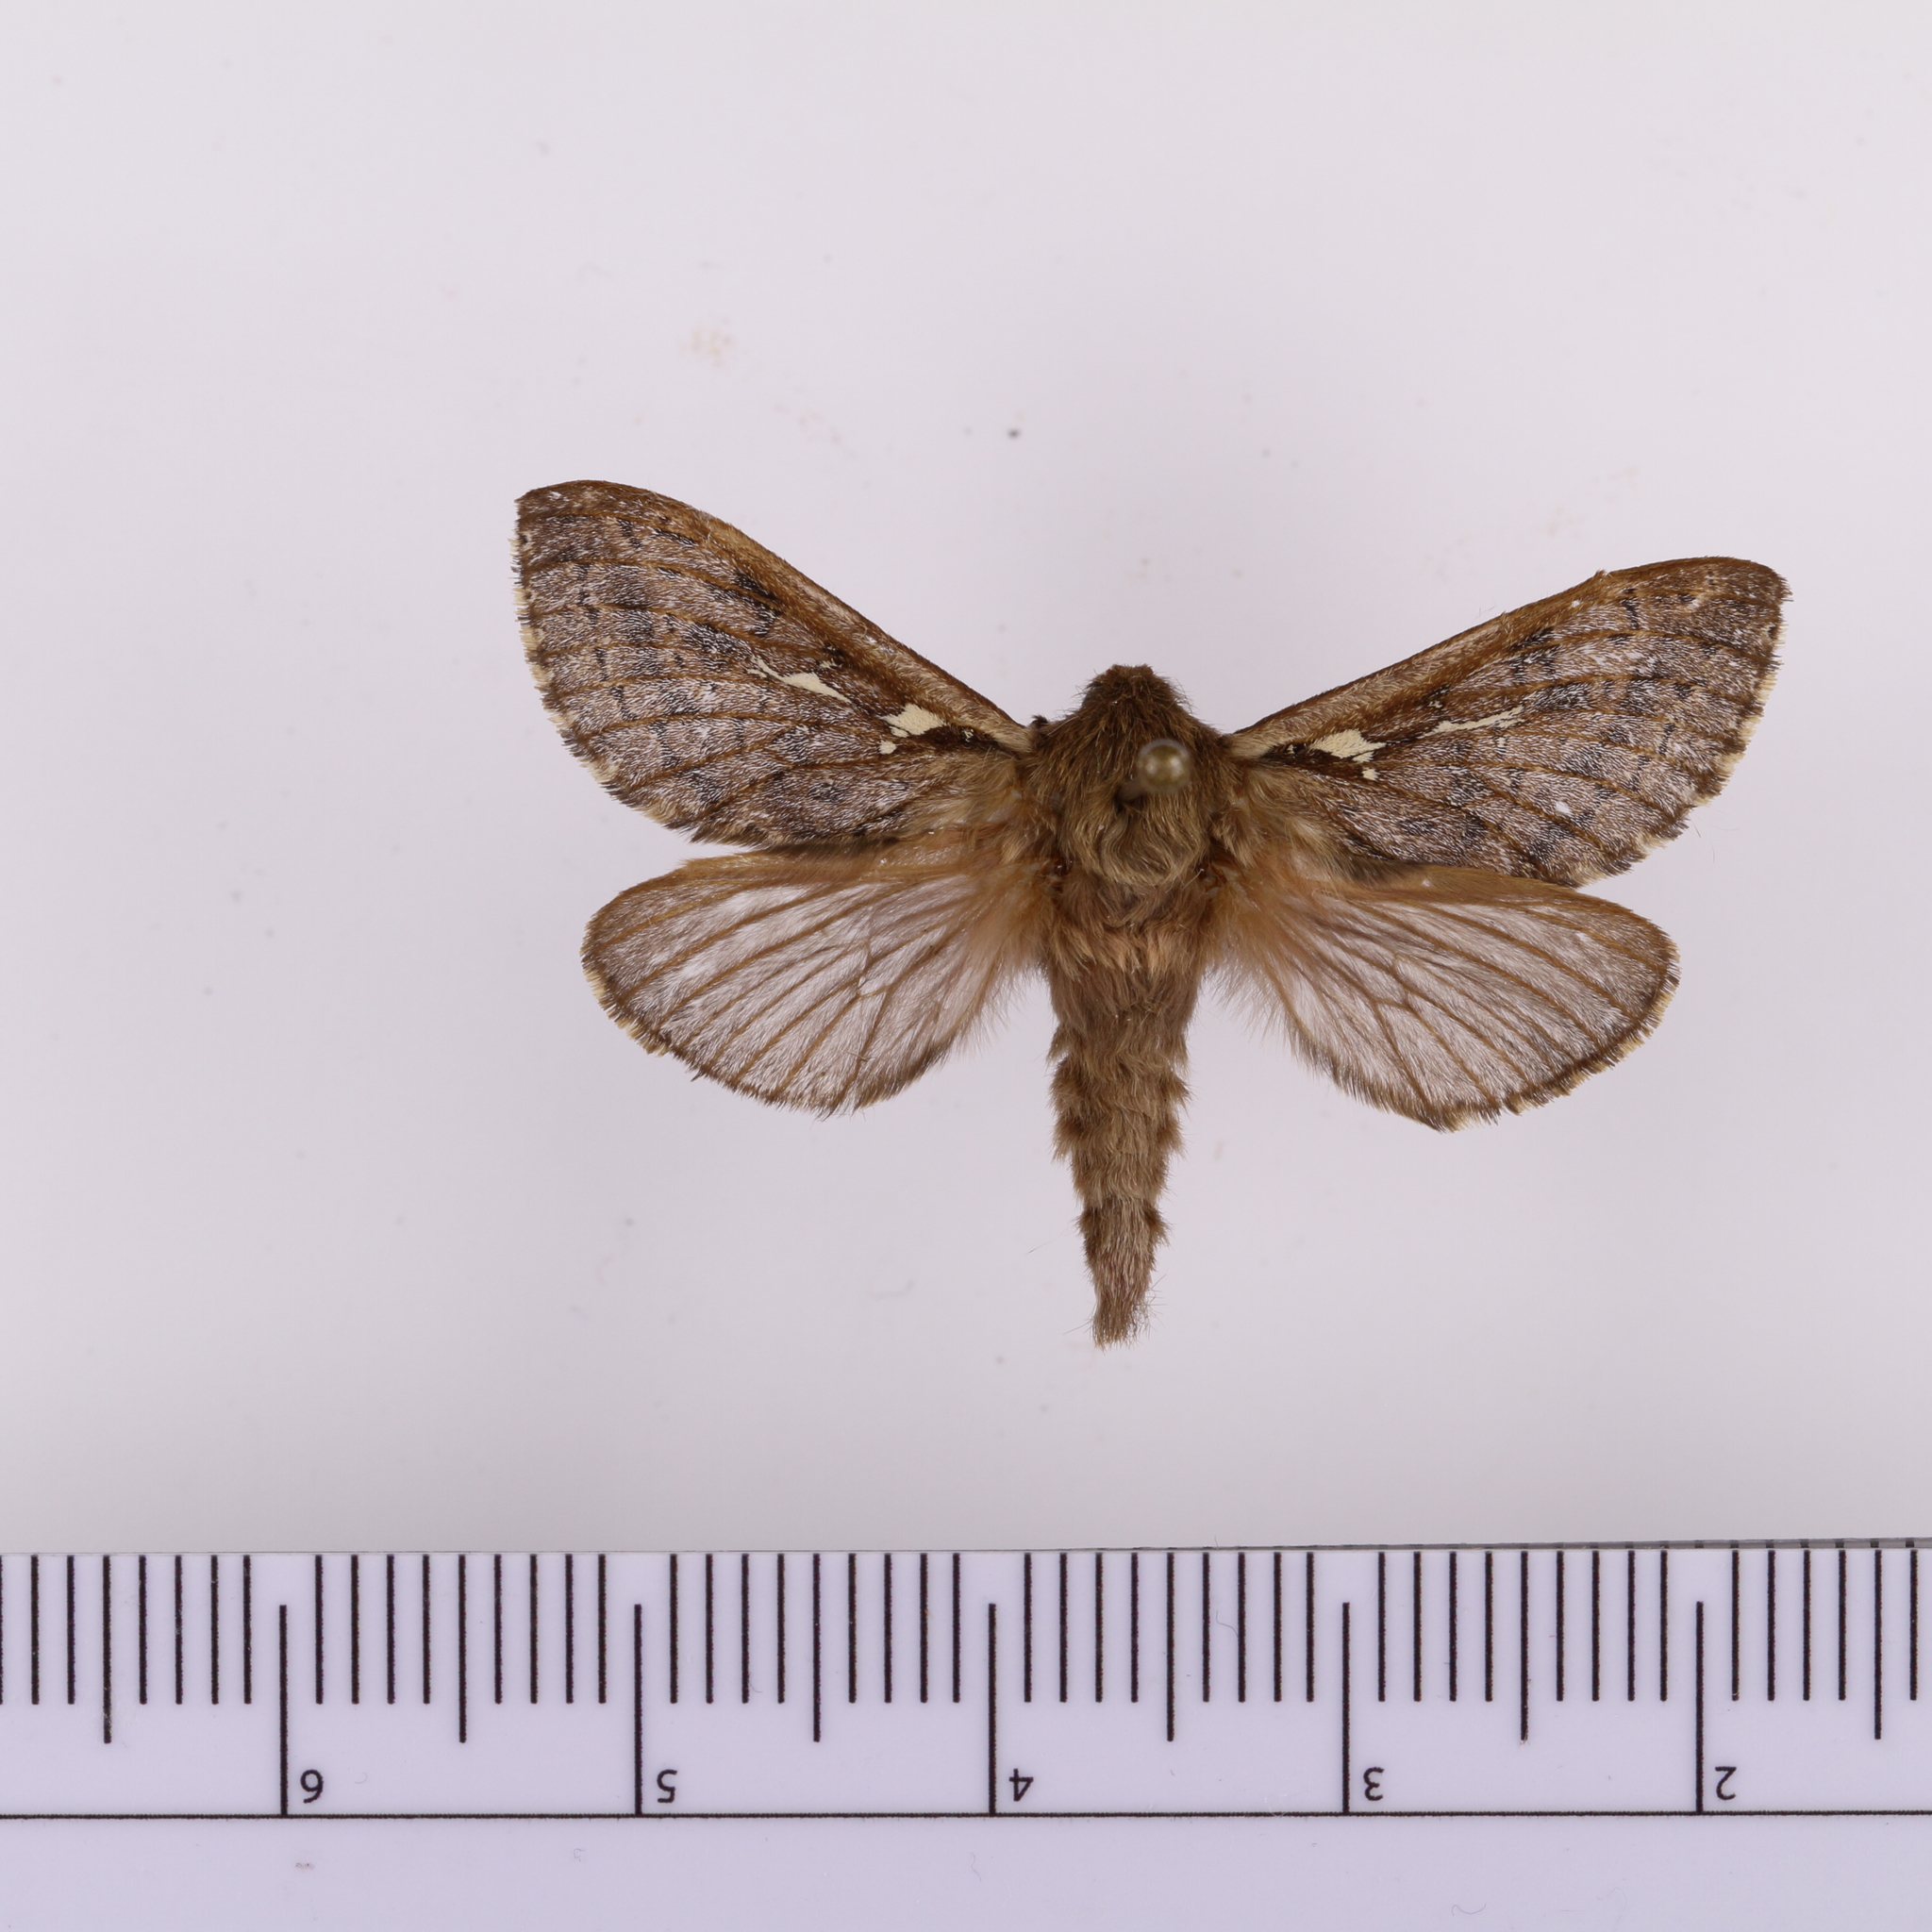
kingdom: Animalia
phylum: Arthropoda
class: Insecta
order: Lepidoptera
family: Hepialidae
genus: Wiseana
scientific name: Wiseana cervinata
